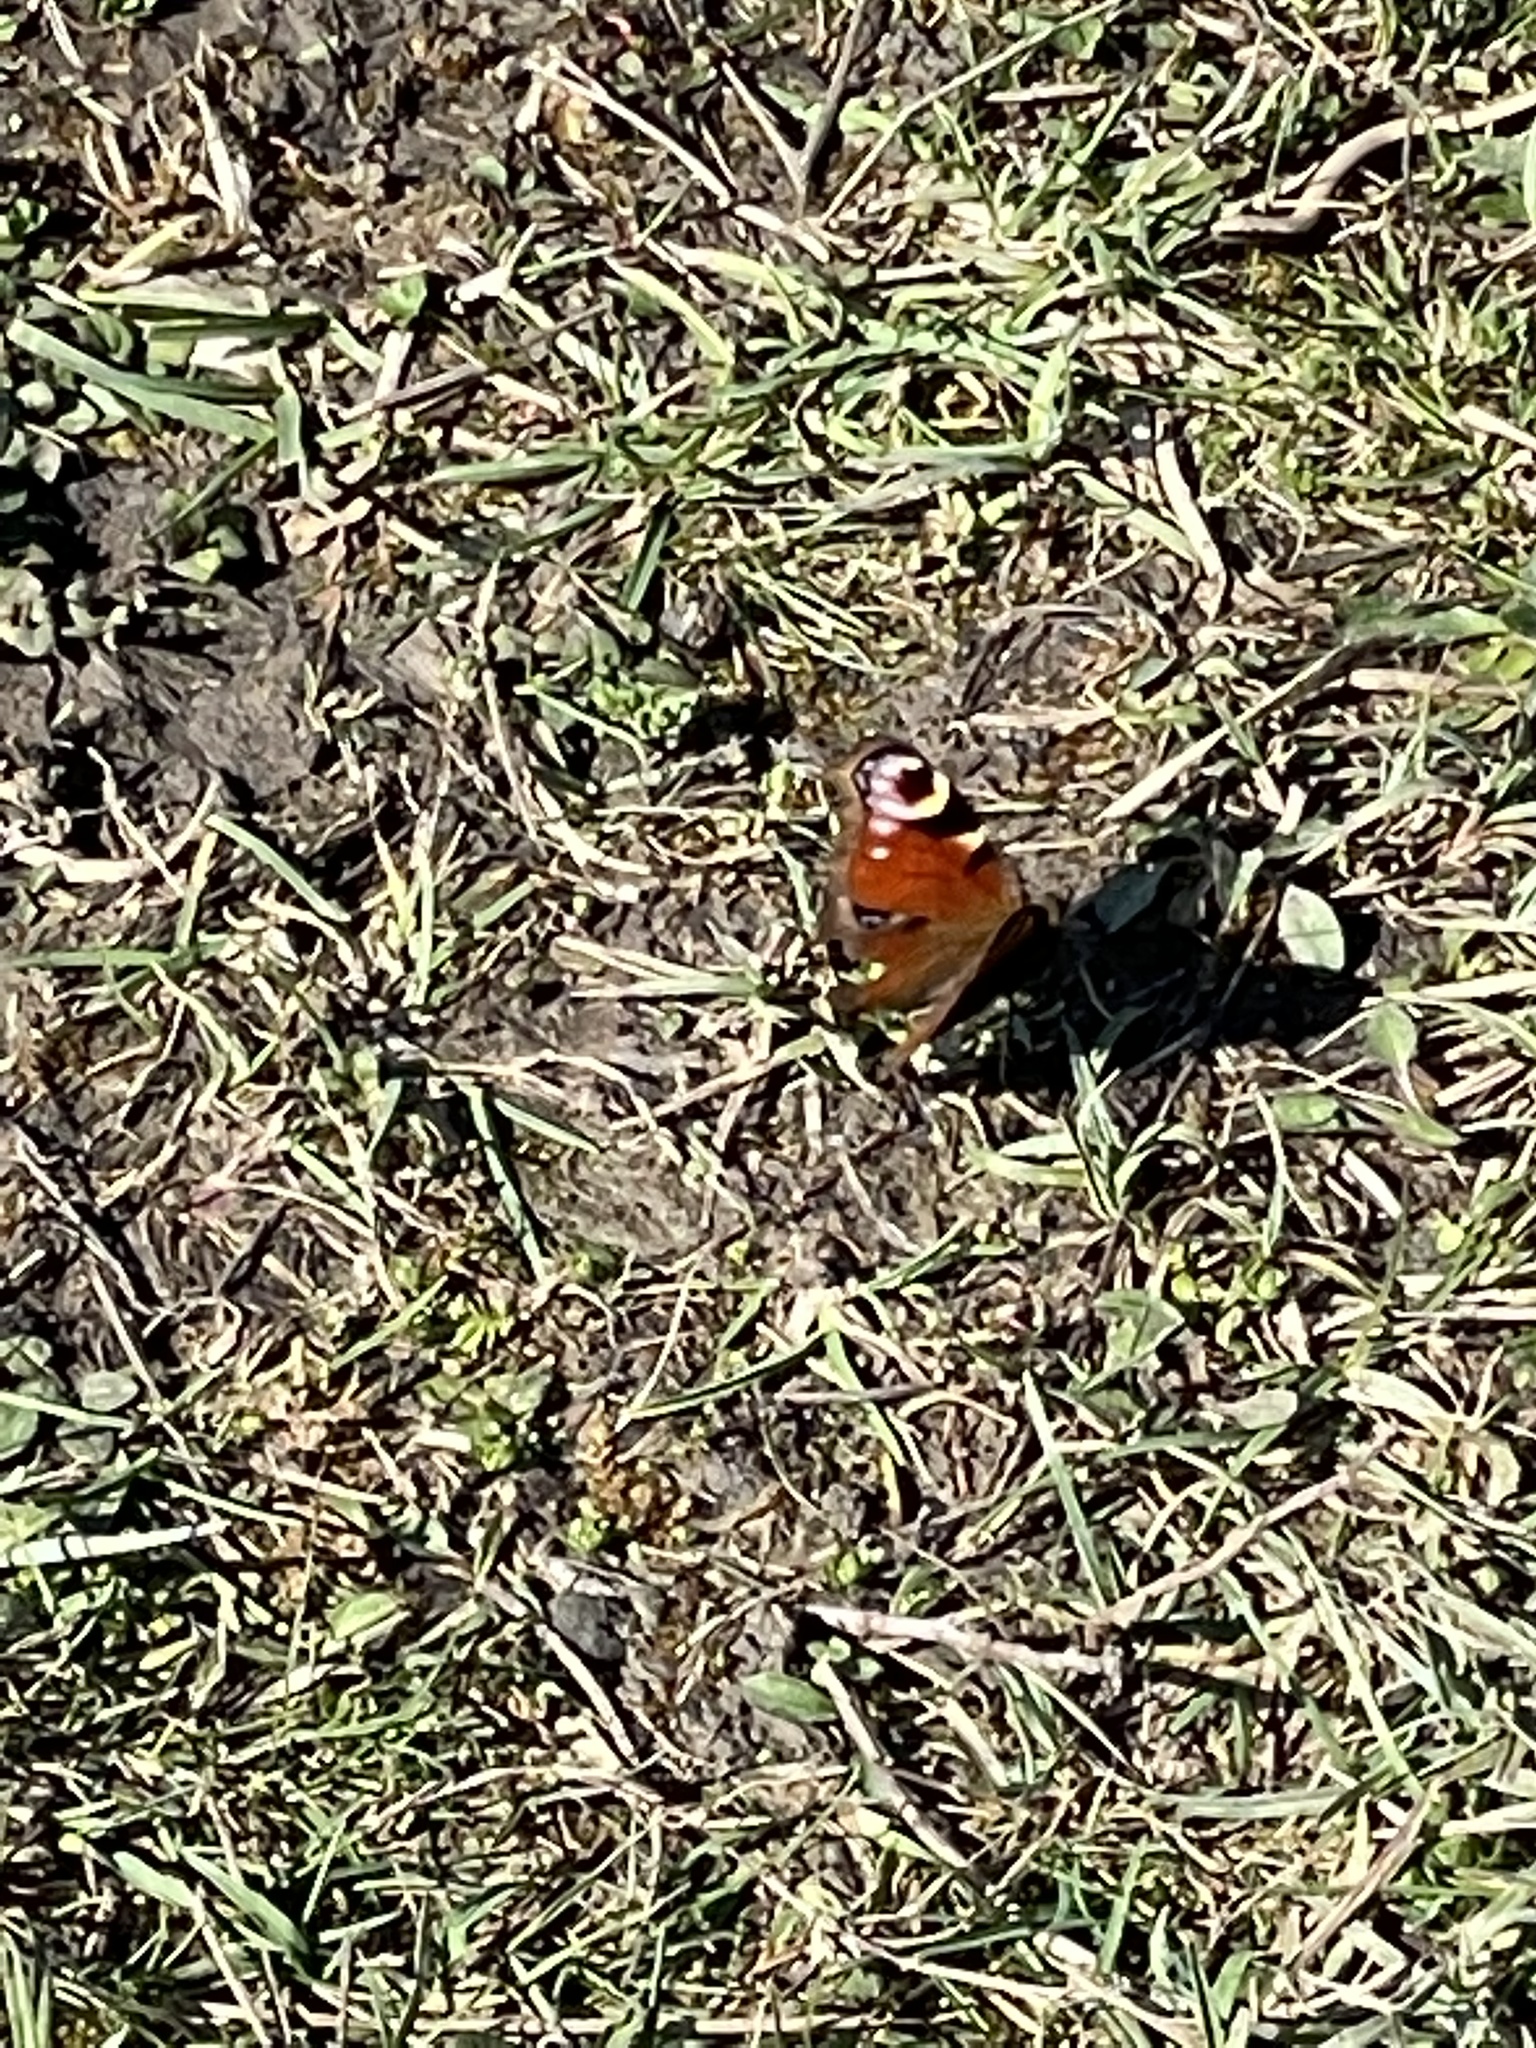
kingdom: Animalia
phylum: Arthropoda
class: Insecta
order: Lepidoptera
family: Nymphalidae
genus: Aglais
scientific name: Aglais io
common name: Peacock
